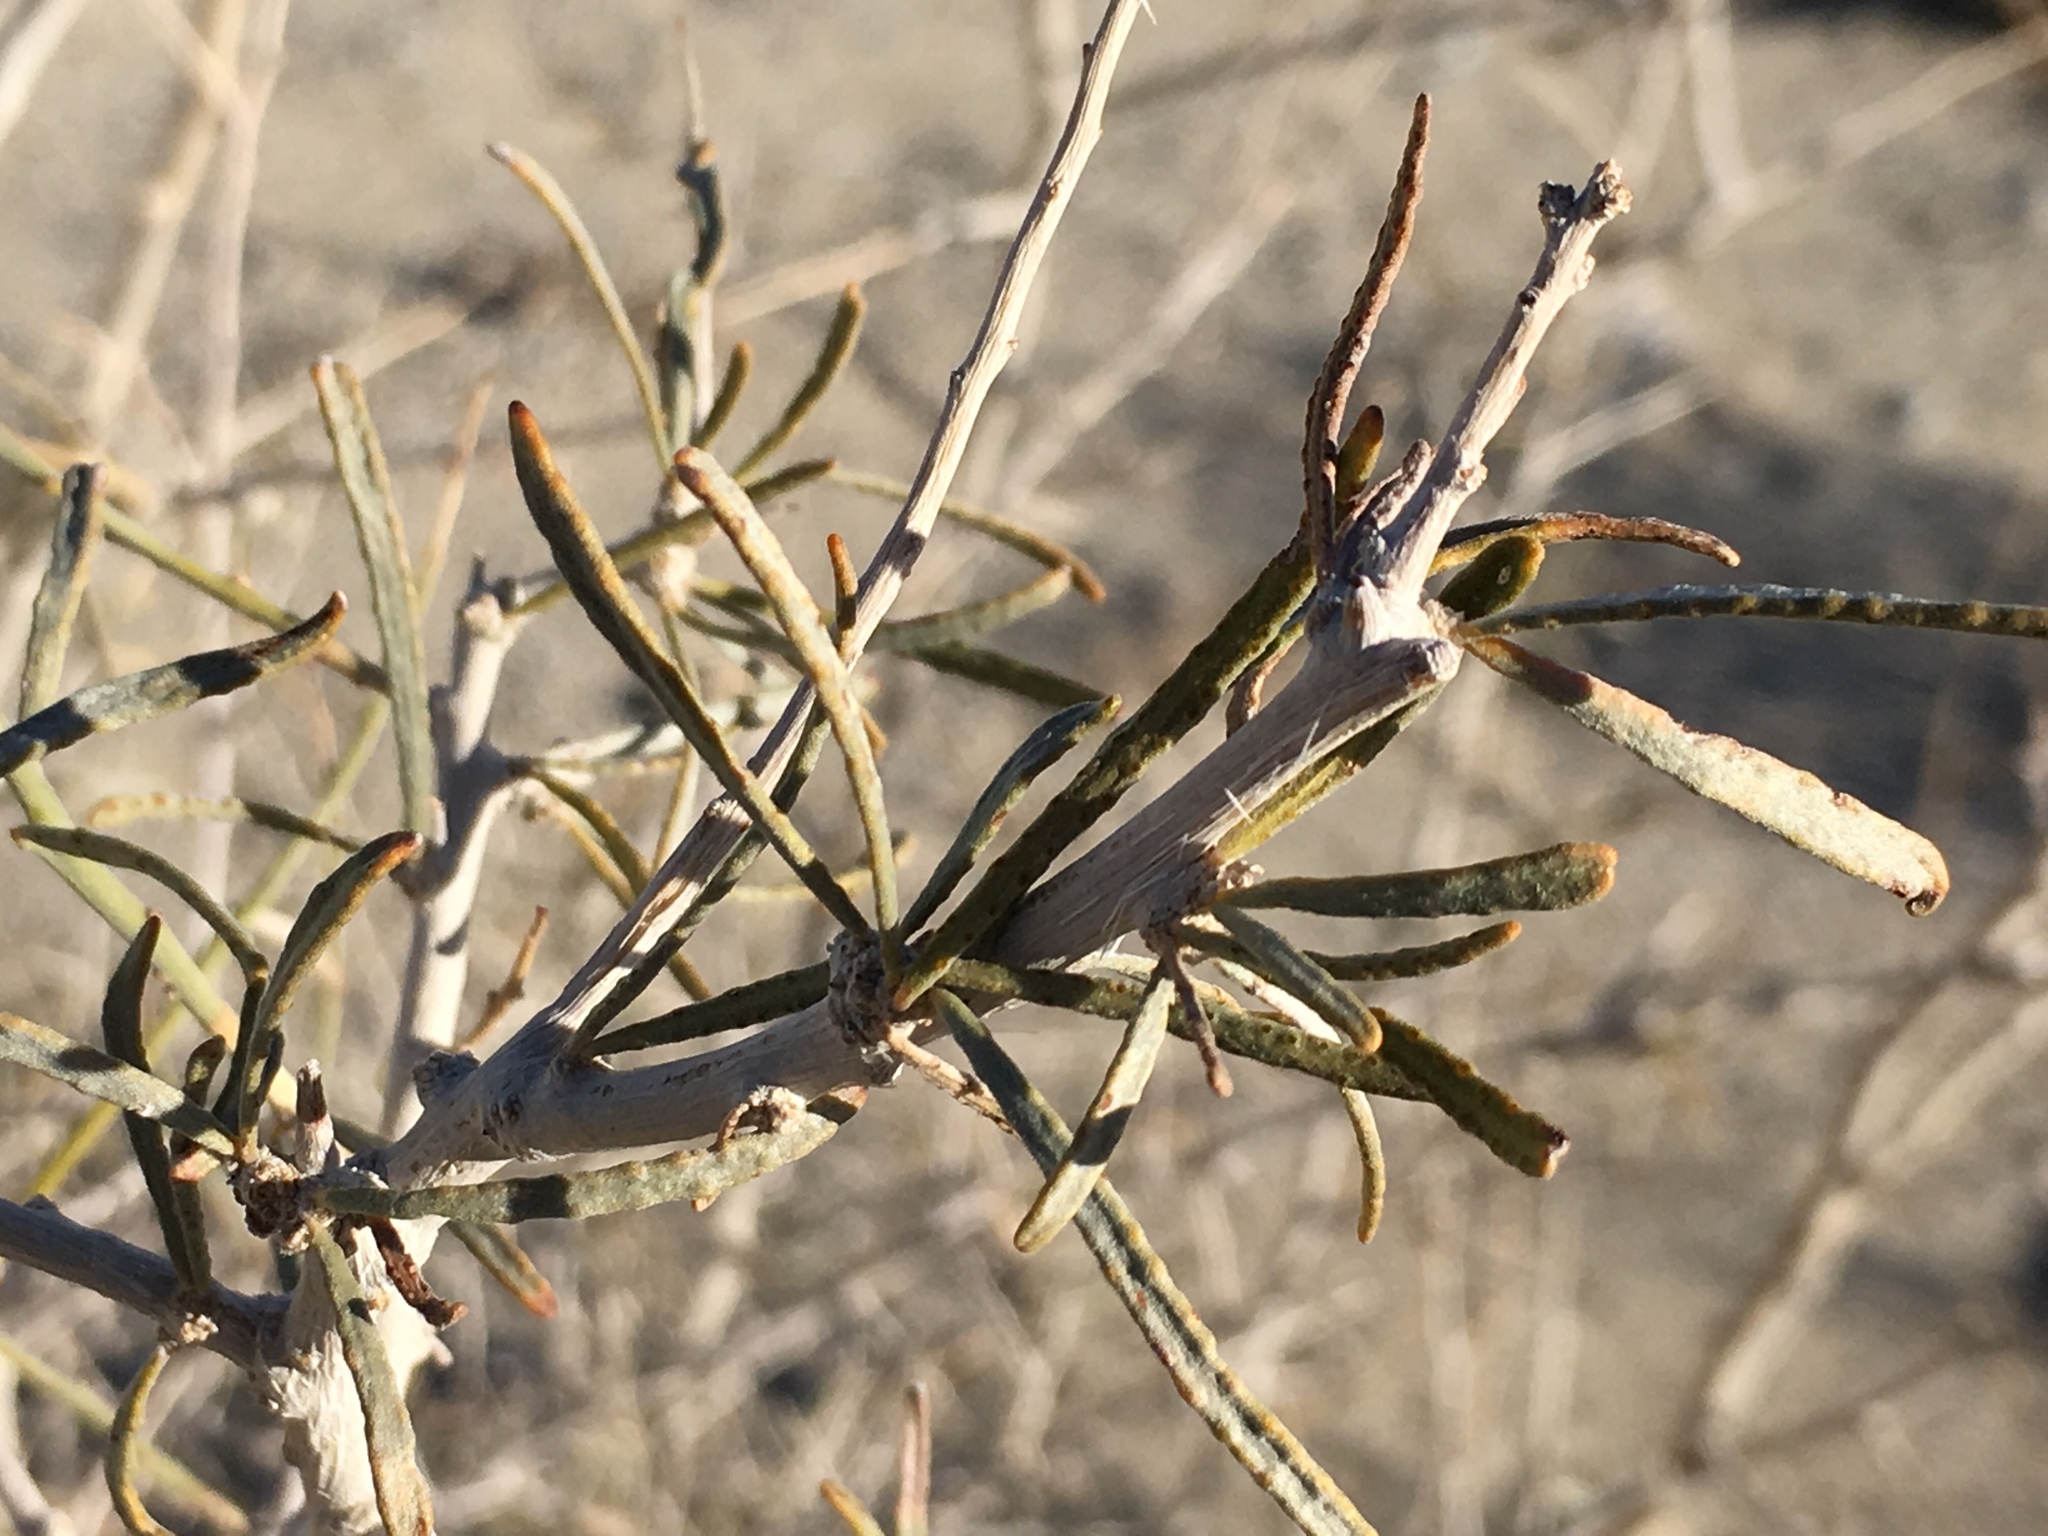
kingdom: Plantae
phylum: Tracheophyta
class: Magnoliopsida
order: Fabales
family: Fabaceae
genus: Psorothamnus
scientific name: Psorothamnus schottii
